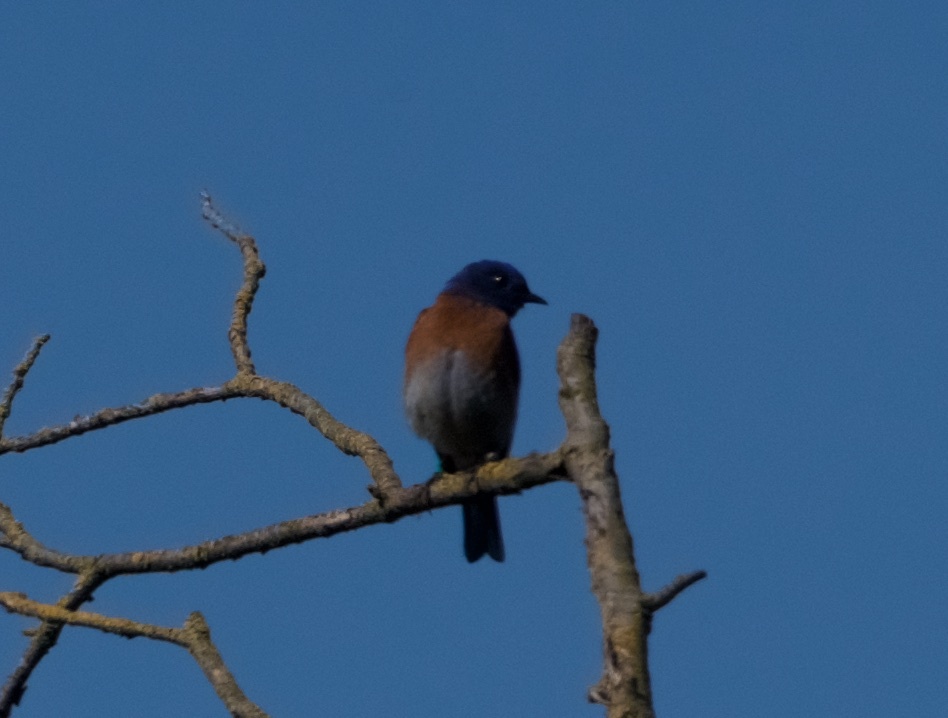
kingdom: Animalia
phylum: Chordata
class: Aves
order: Passeriformes
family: Turdidae
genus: Sialia
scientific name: Sialia mexicana
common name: Western bluebird
